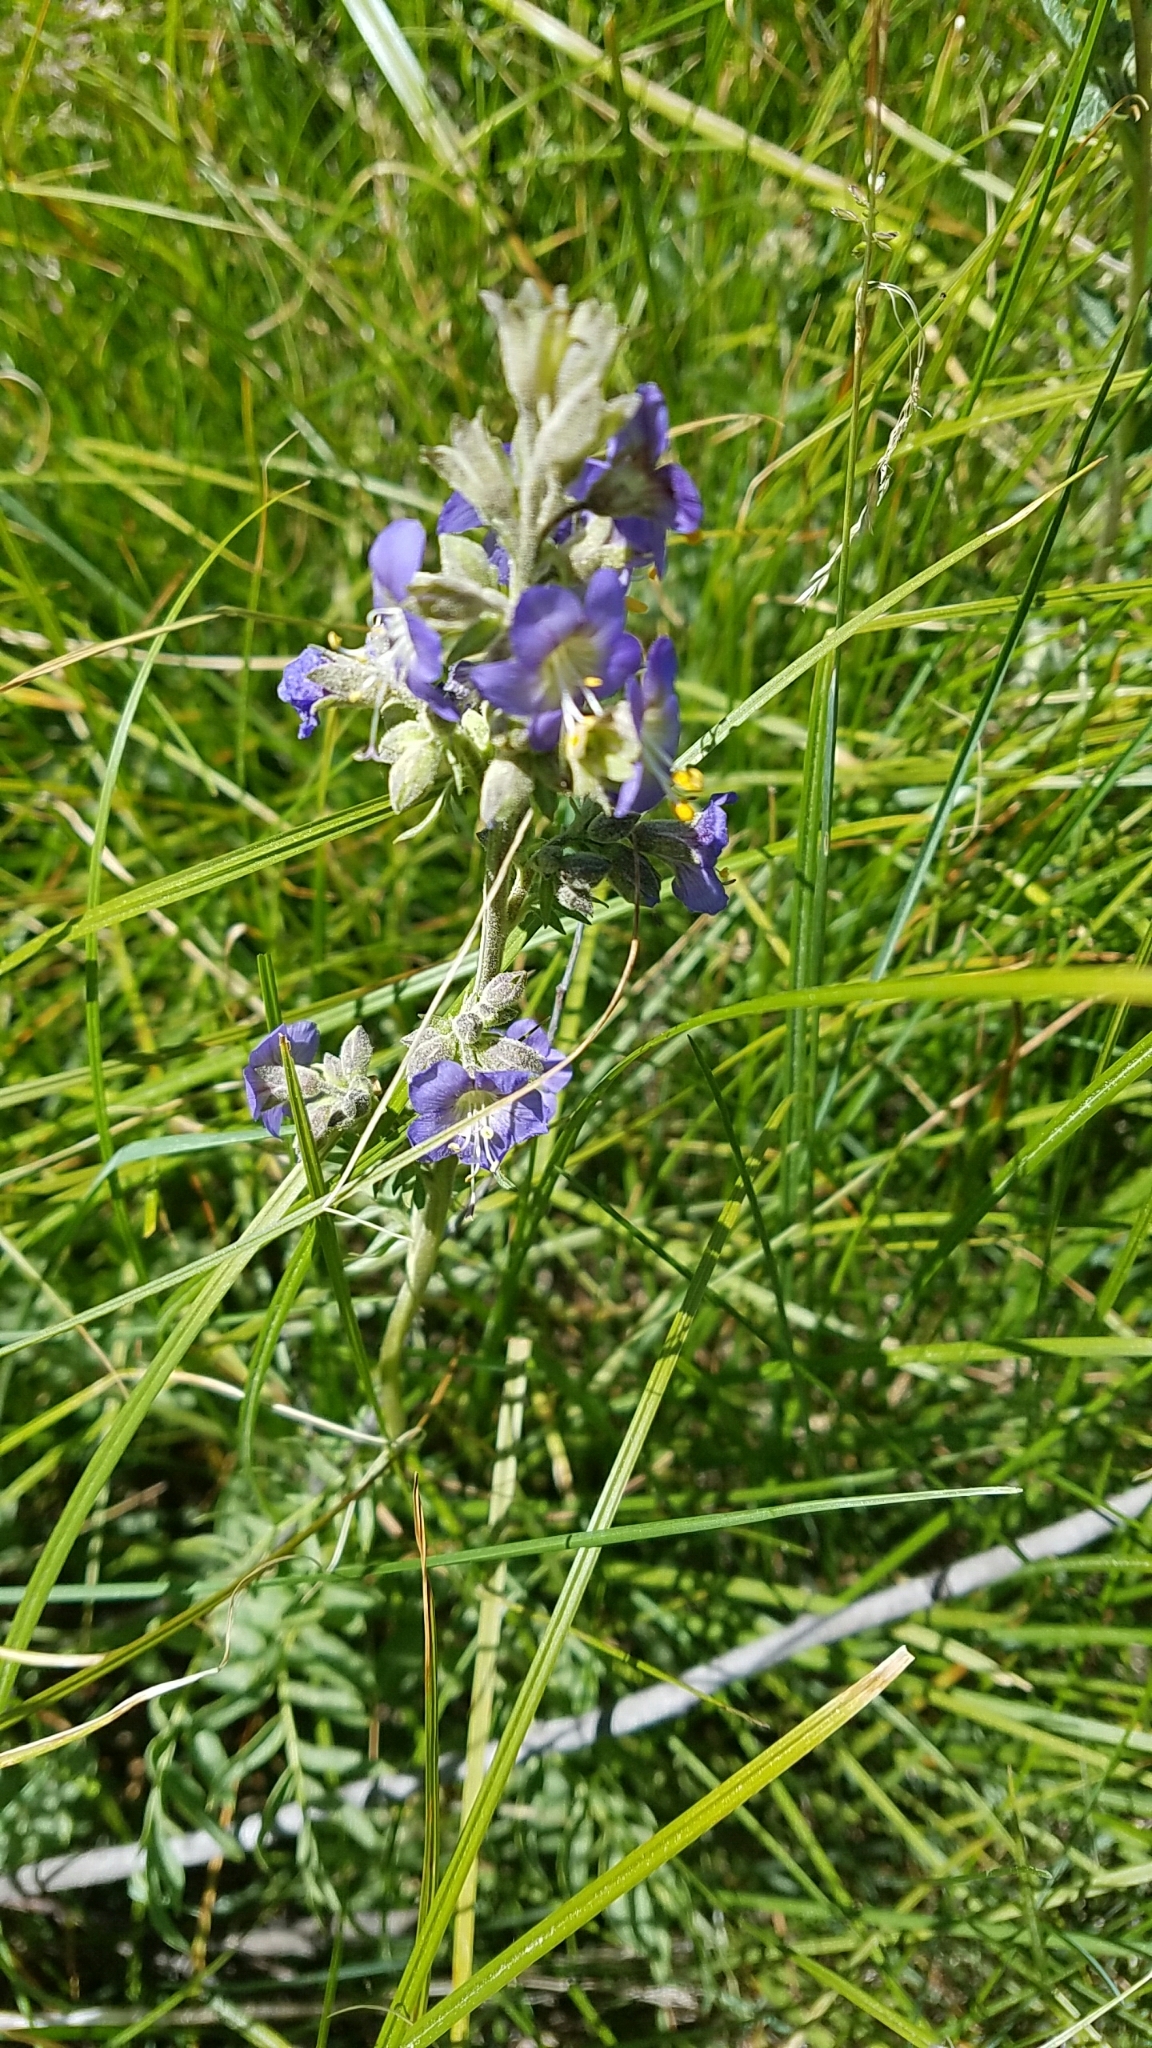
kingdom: Plantae
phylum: Tracheophyta
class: Magnoliopsida
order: Ericales
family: Polemoniaceae
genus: Polemonium
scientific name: Polemonium occidentale
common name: Western jacob's-ladder
